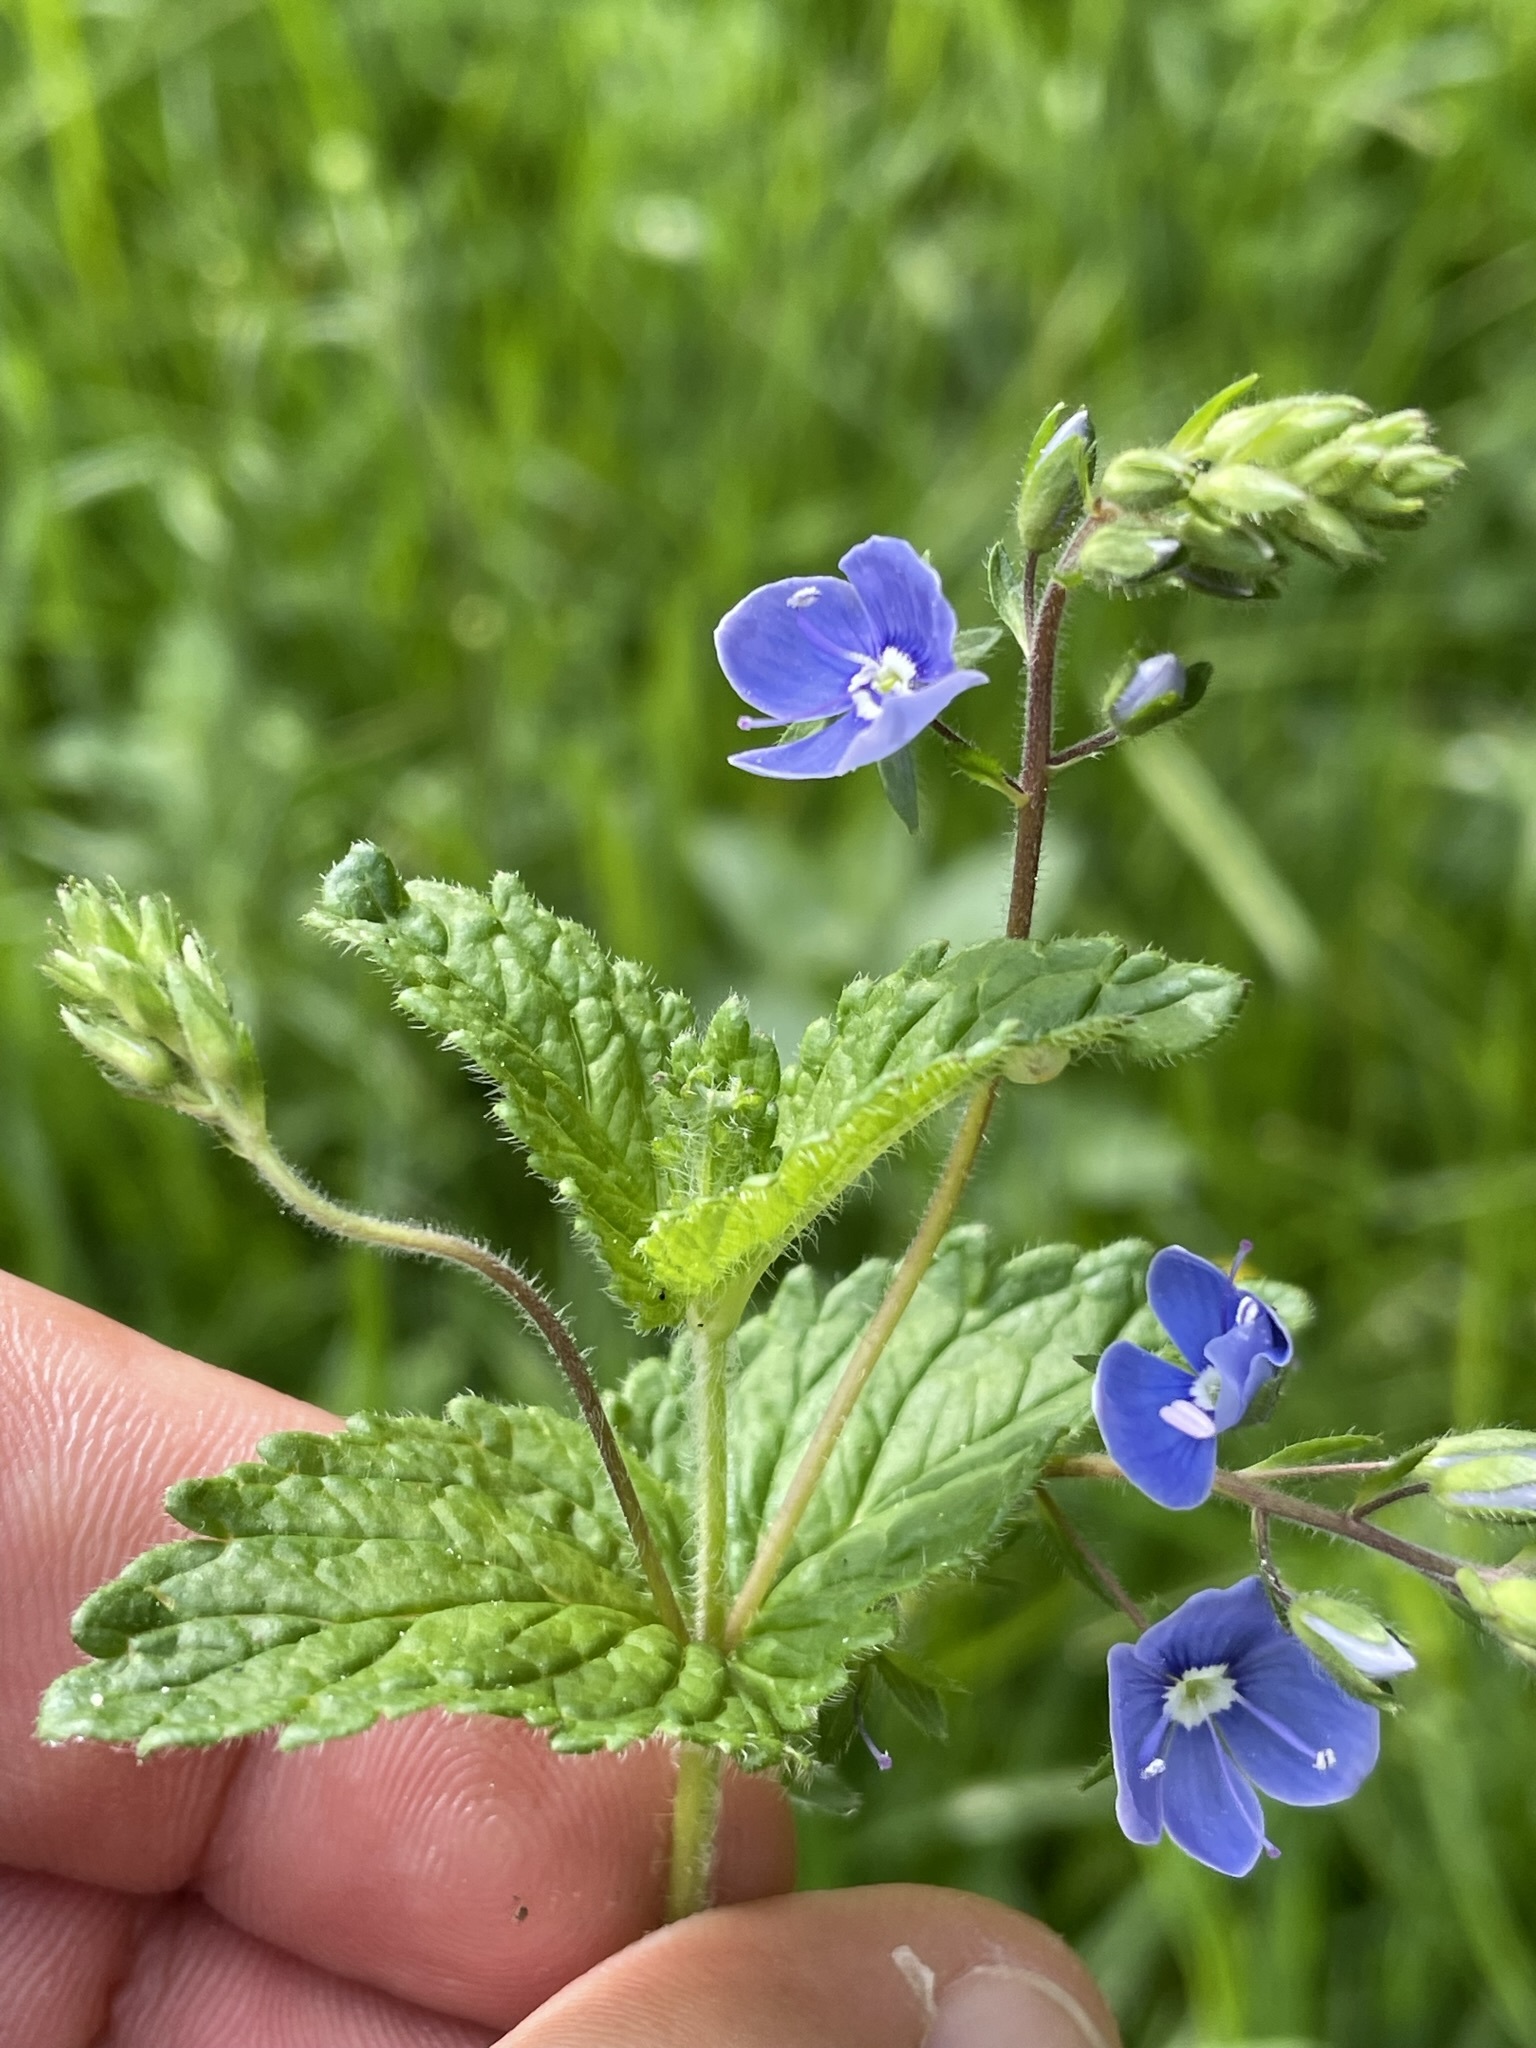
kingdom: Plantae
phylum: Tracheophyta
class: Magnoliopsida
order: Lamiales
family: Plantaginaceae
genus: Veronica
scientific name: Veronica chamaedrys
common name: Germander speedwell
